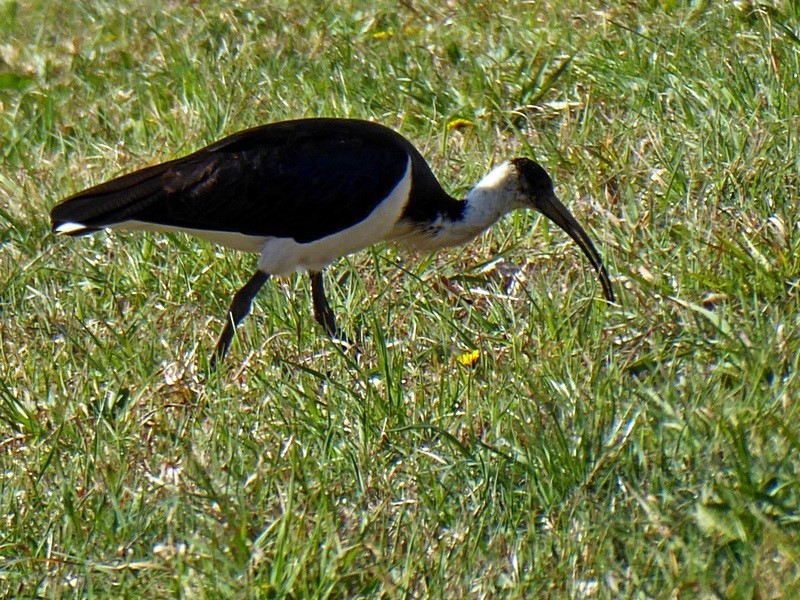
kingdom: Animalia
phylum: Chordata
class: Aves
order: Pelecaniformes
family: Threskiornithidae
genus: Threskiornis
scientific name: Threskiornis spinicollis
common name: Straw-necked ibis
